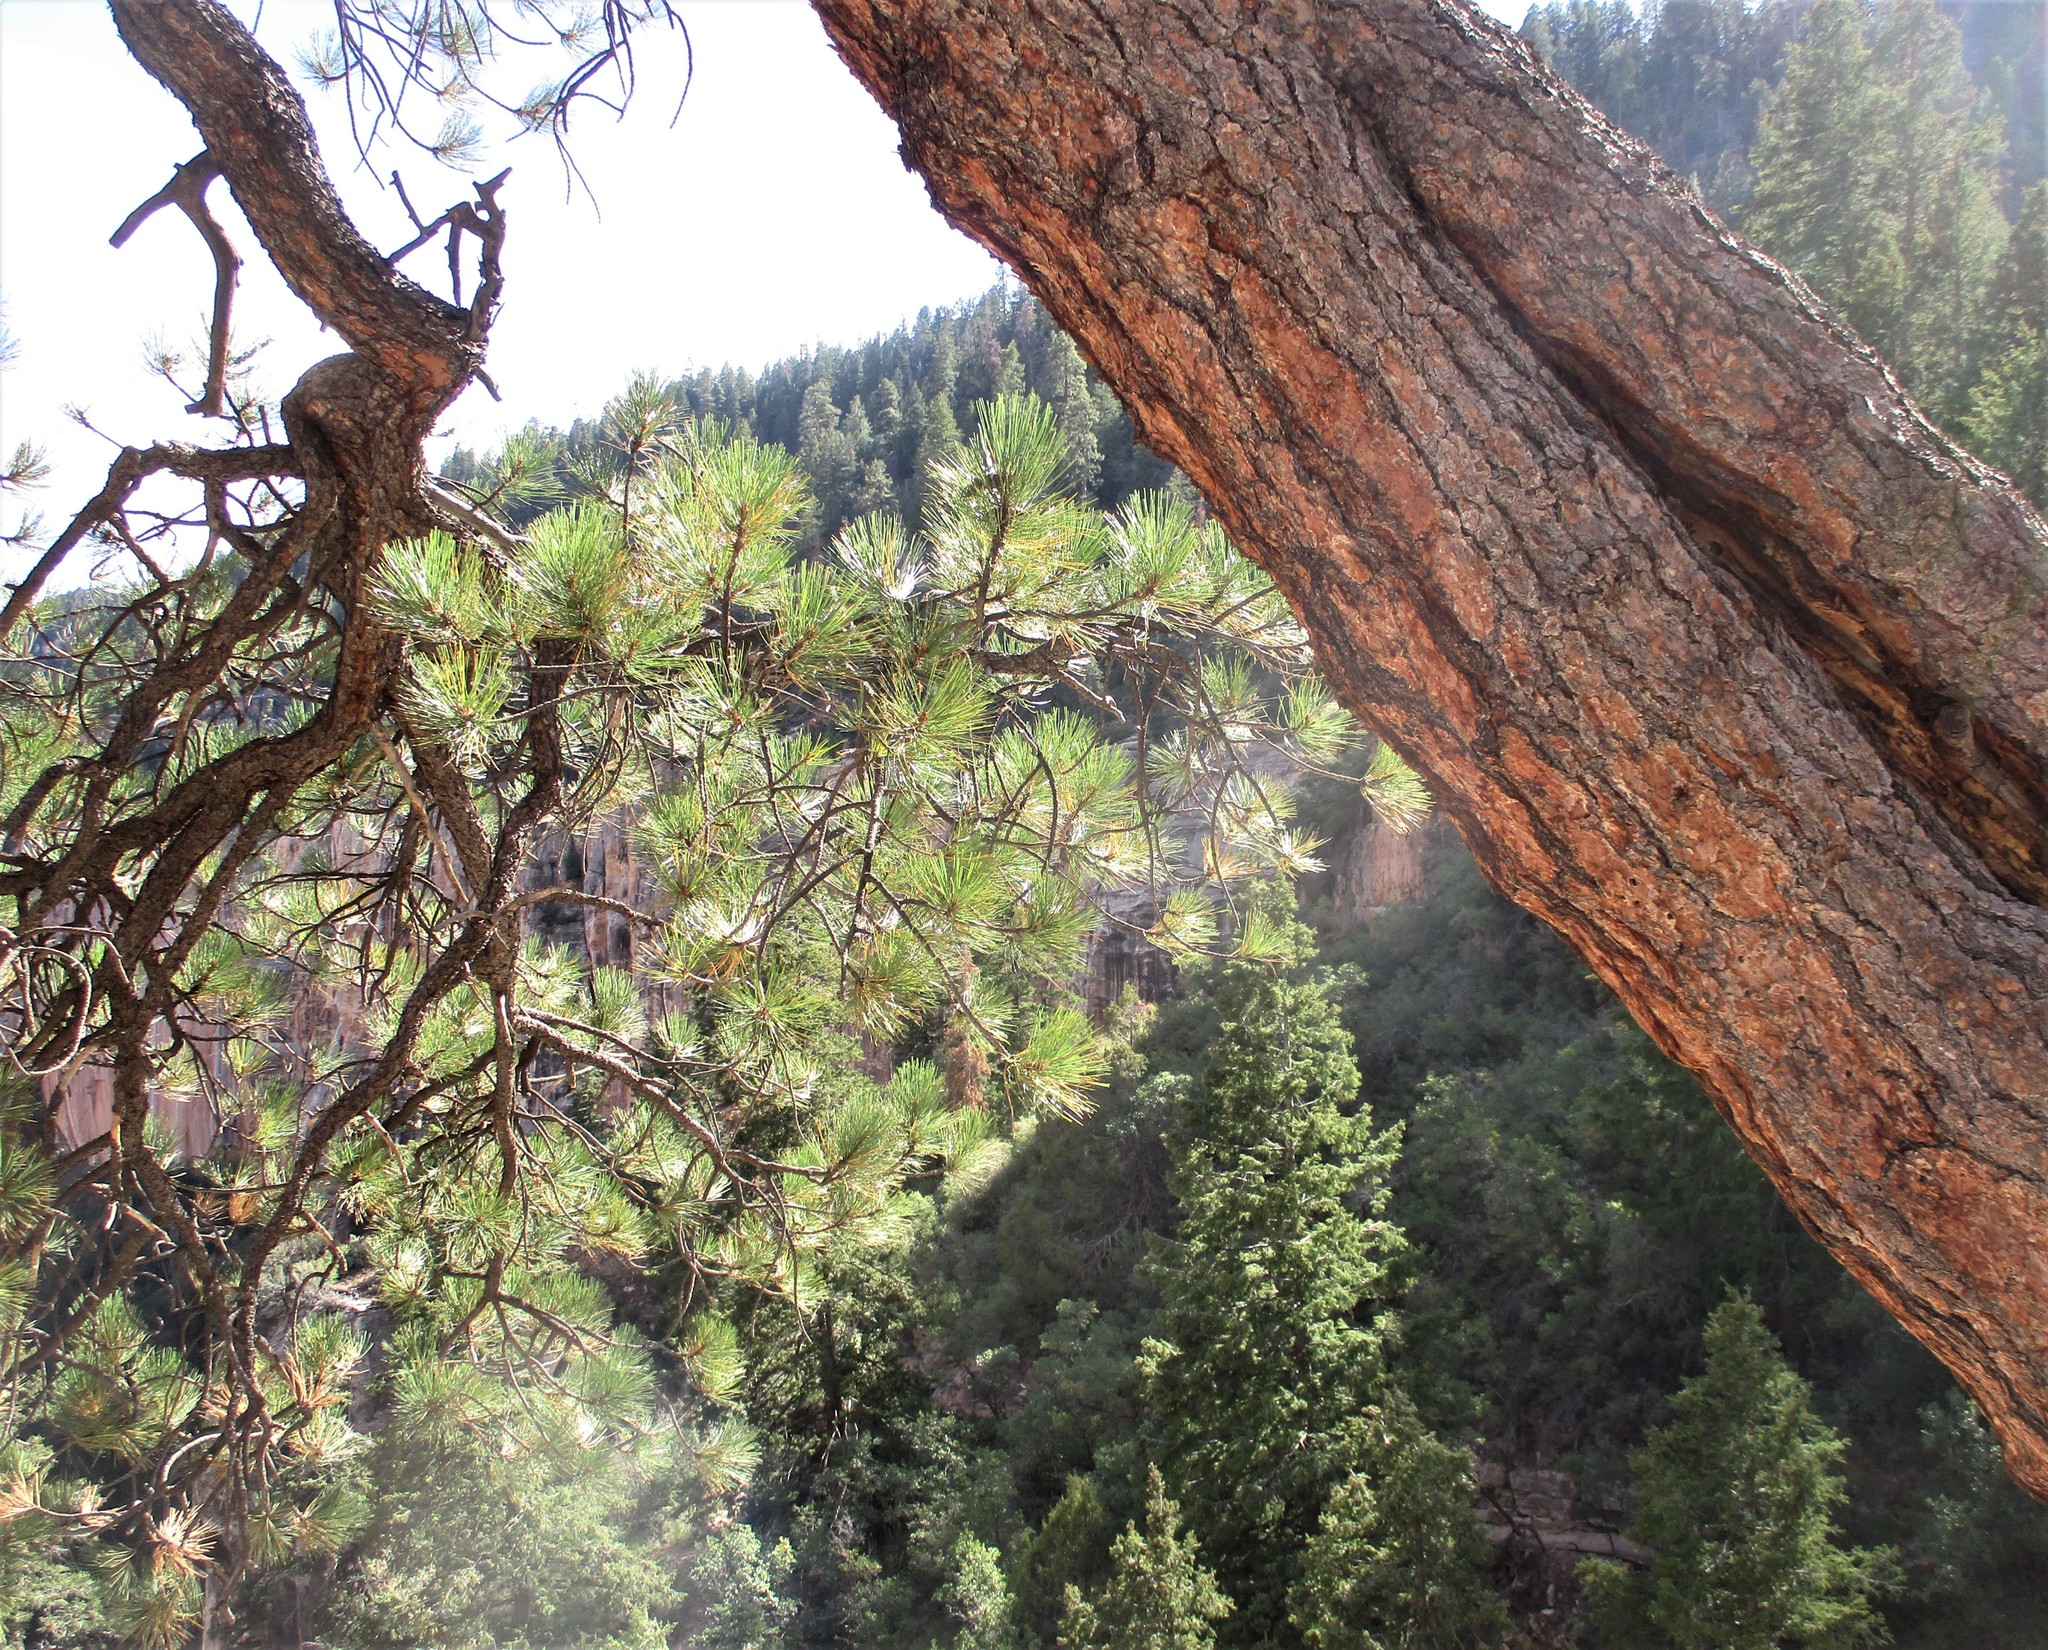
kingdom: Plantae
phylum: Tracheophyta
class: Pinopsida
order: Pinales
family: Pinaceae
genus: Pinus
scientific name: Pinus ponderosa
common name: Western yellow-pine
